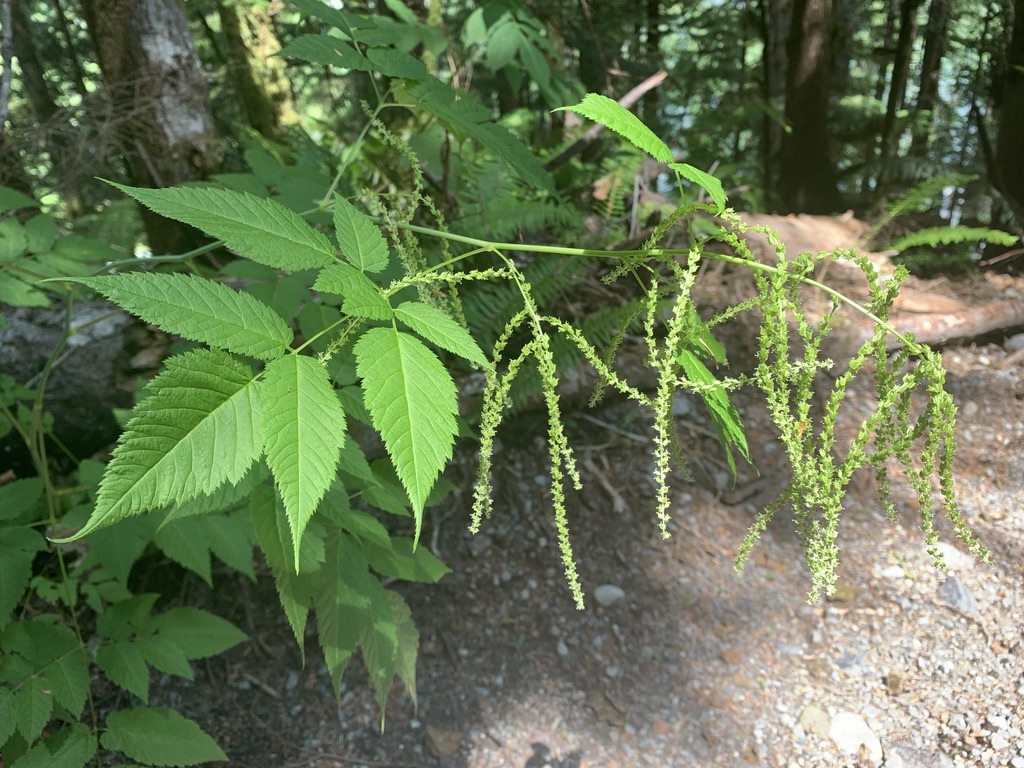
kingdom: Plantae
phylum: Tracheophyta
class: Magnoliopsida
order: Rosales
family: Rosaceae
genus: Aruncus
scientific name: Aruncus dioicus
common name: Buck's-beard
